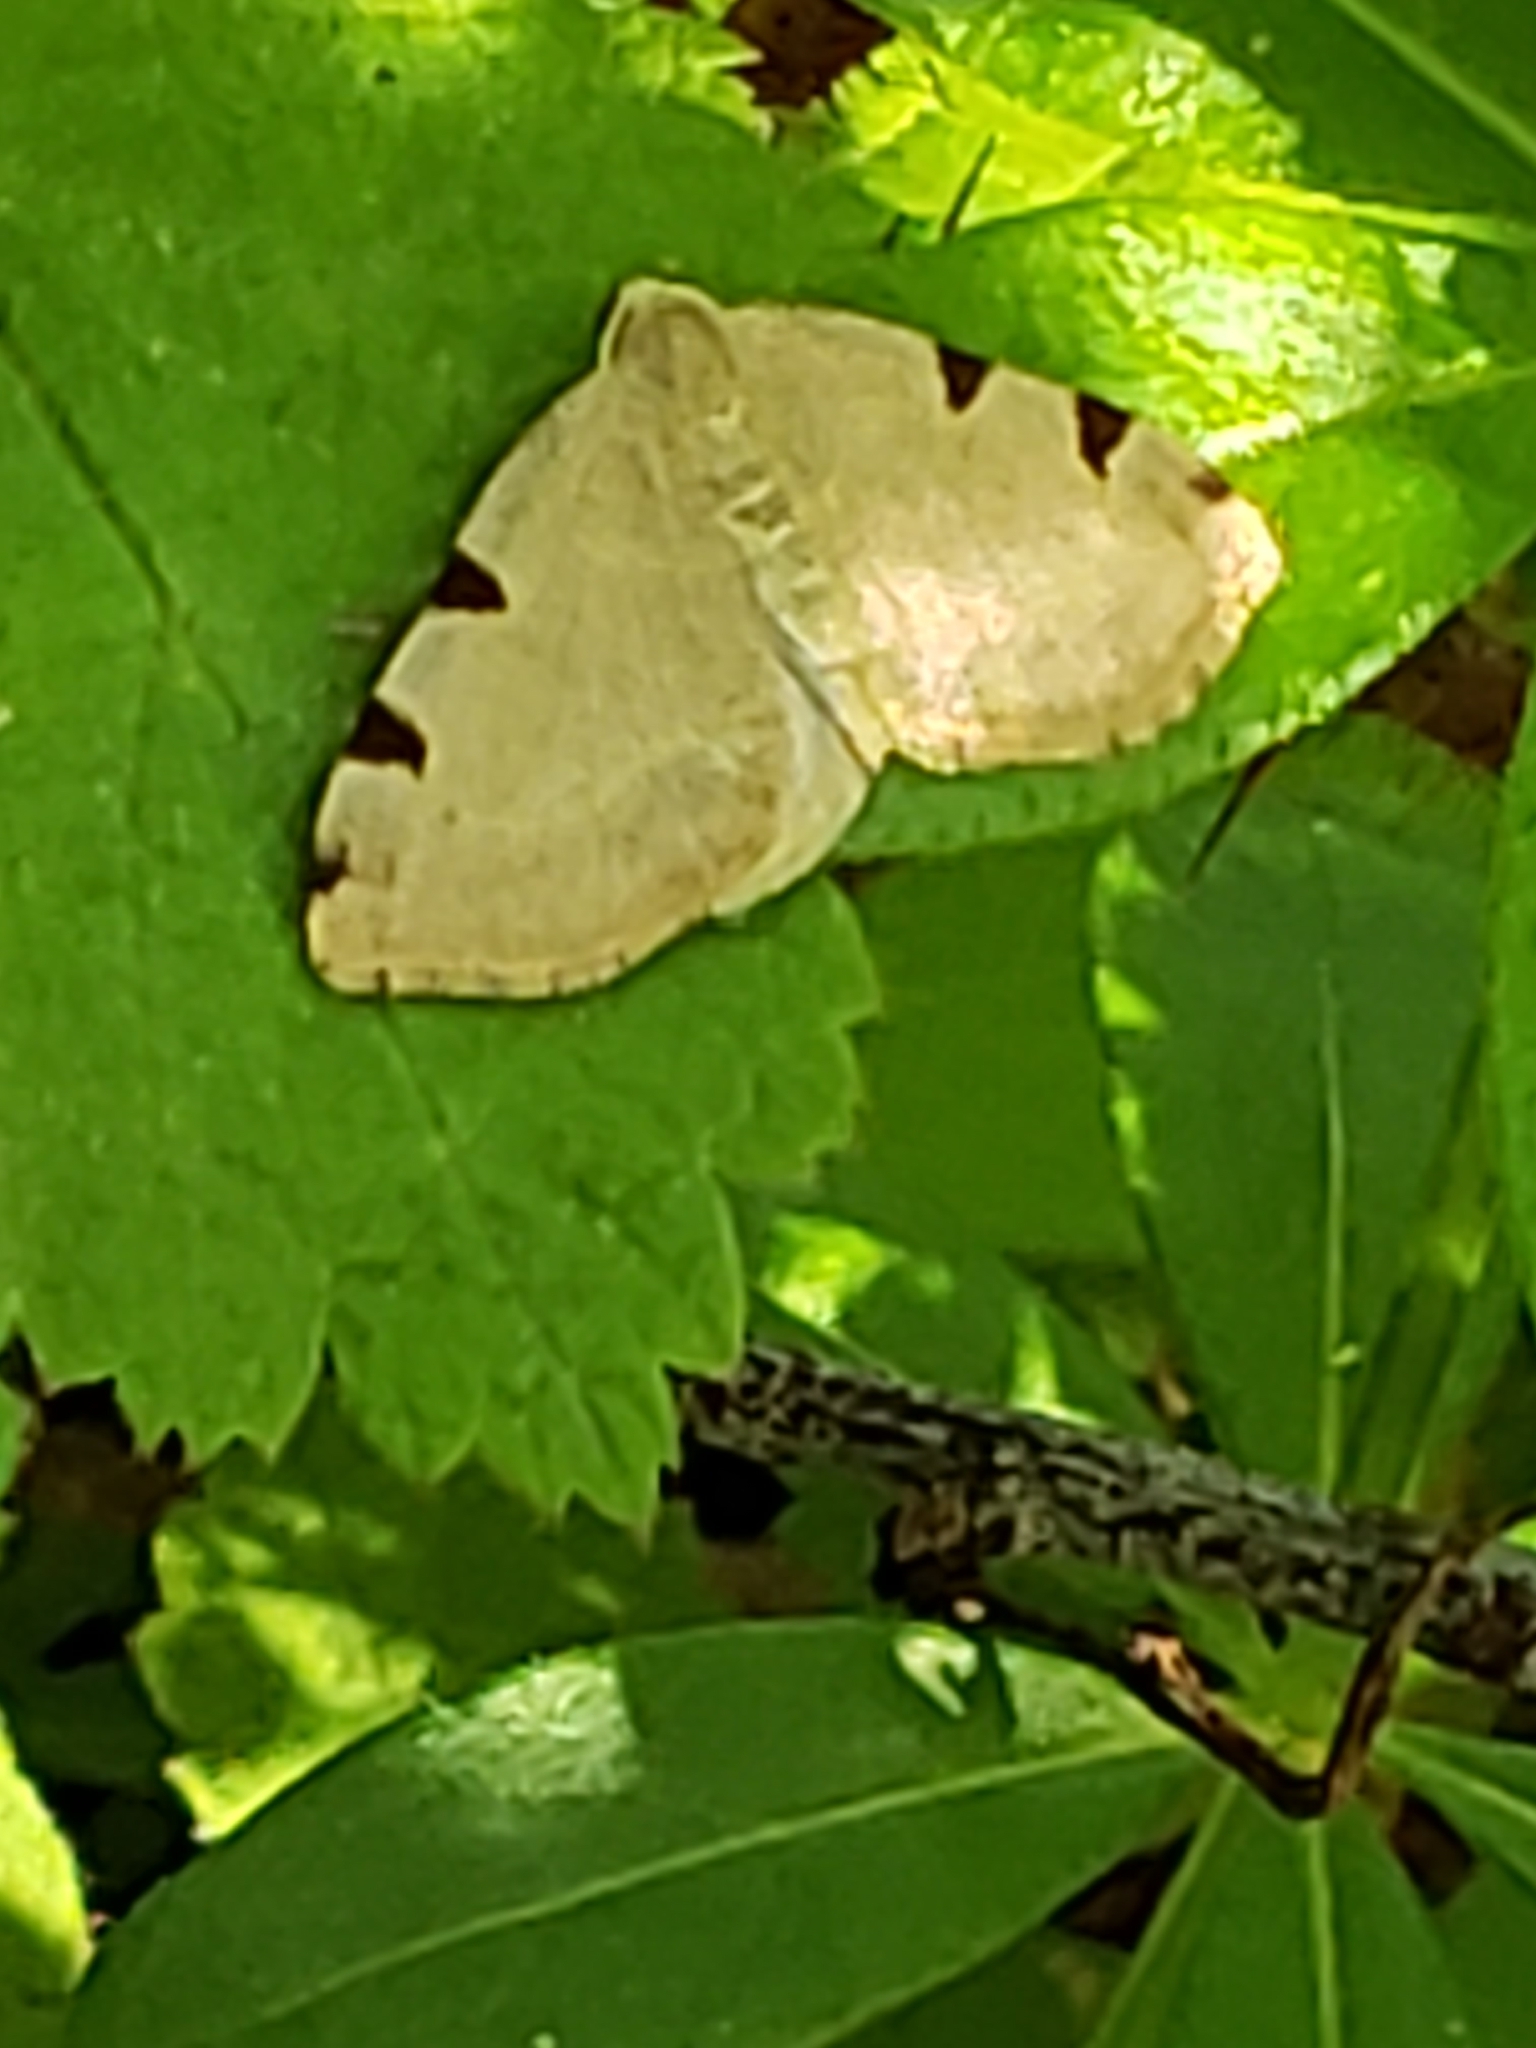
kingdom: Animalia
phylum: Arthropoda
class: Insecta
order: Lepidoptera
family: Geometridae
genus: Heterophleps
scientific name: Heterophleps triguttaria
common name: Three-spotted fillip
